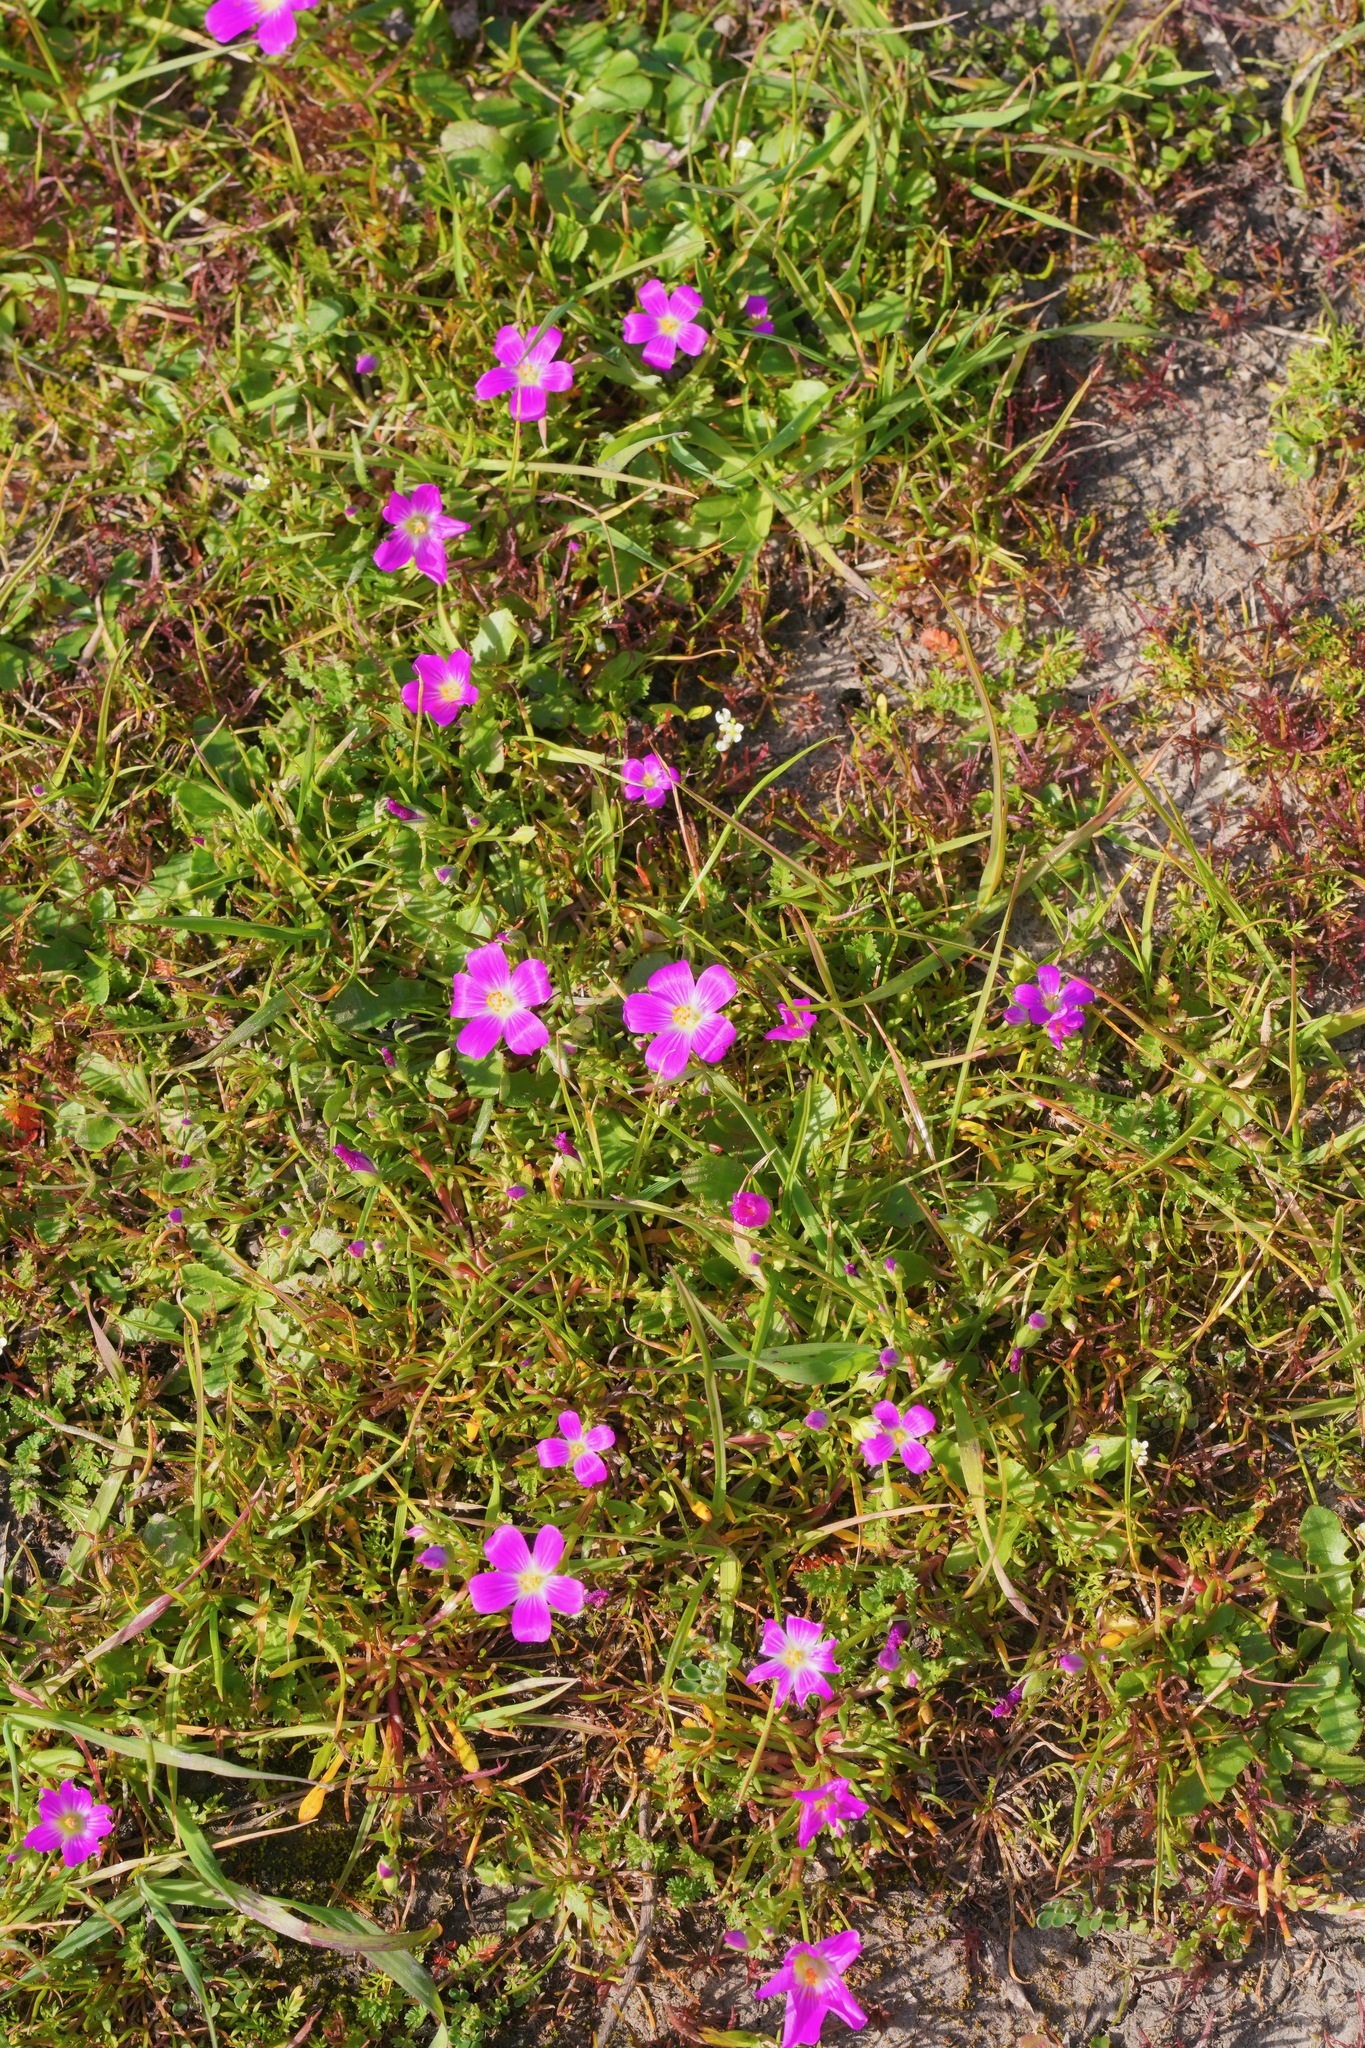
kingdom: Plantae
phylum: Tracheophyta
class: Magnoliopsida
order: Caryophyllales
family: Montiaceae
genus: Calandrinia
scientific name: Calandrinia menziesii
